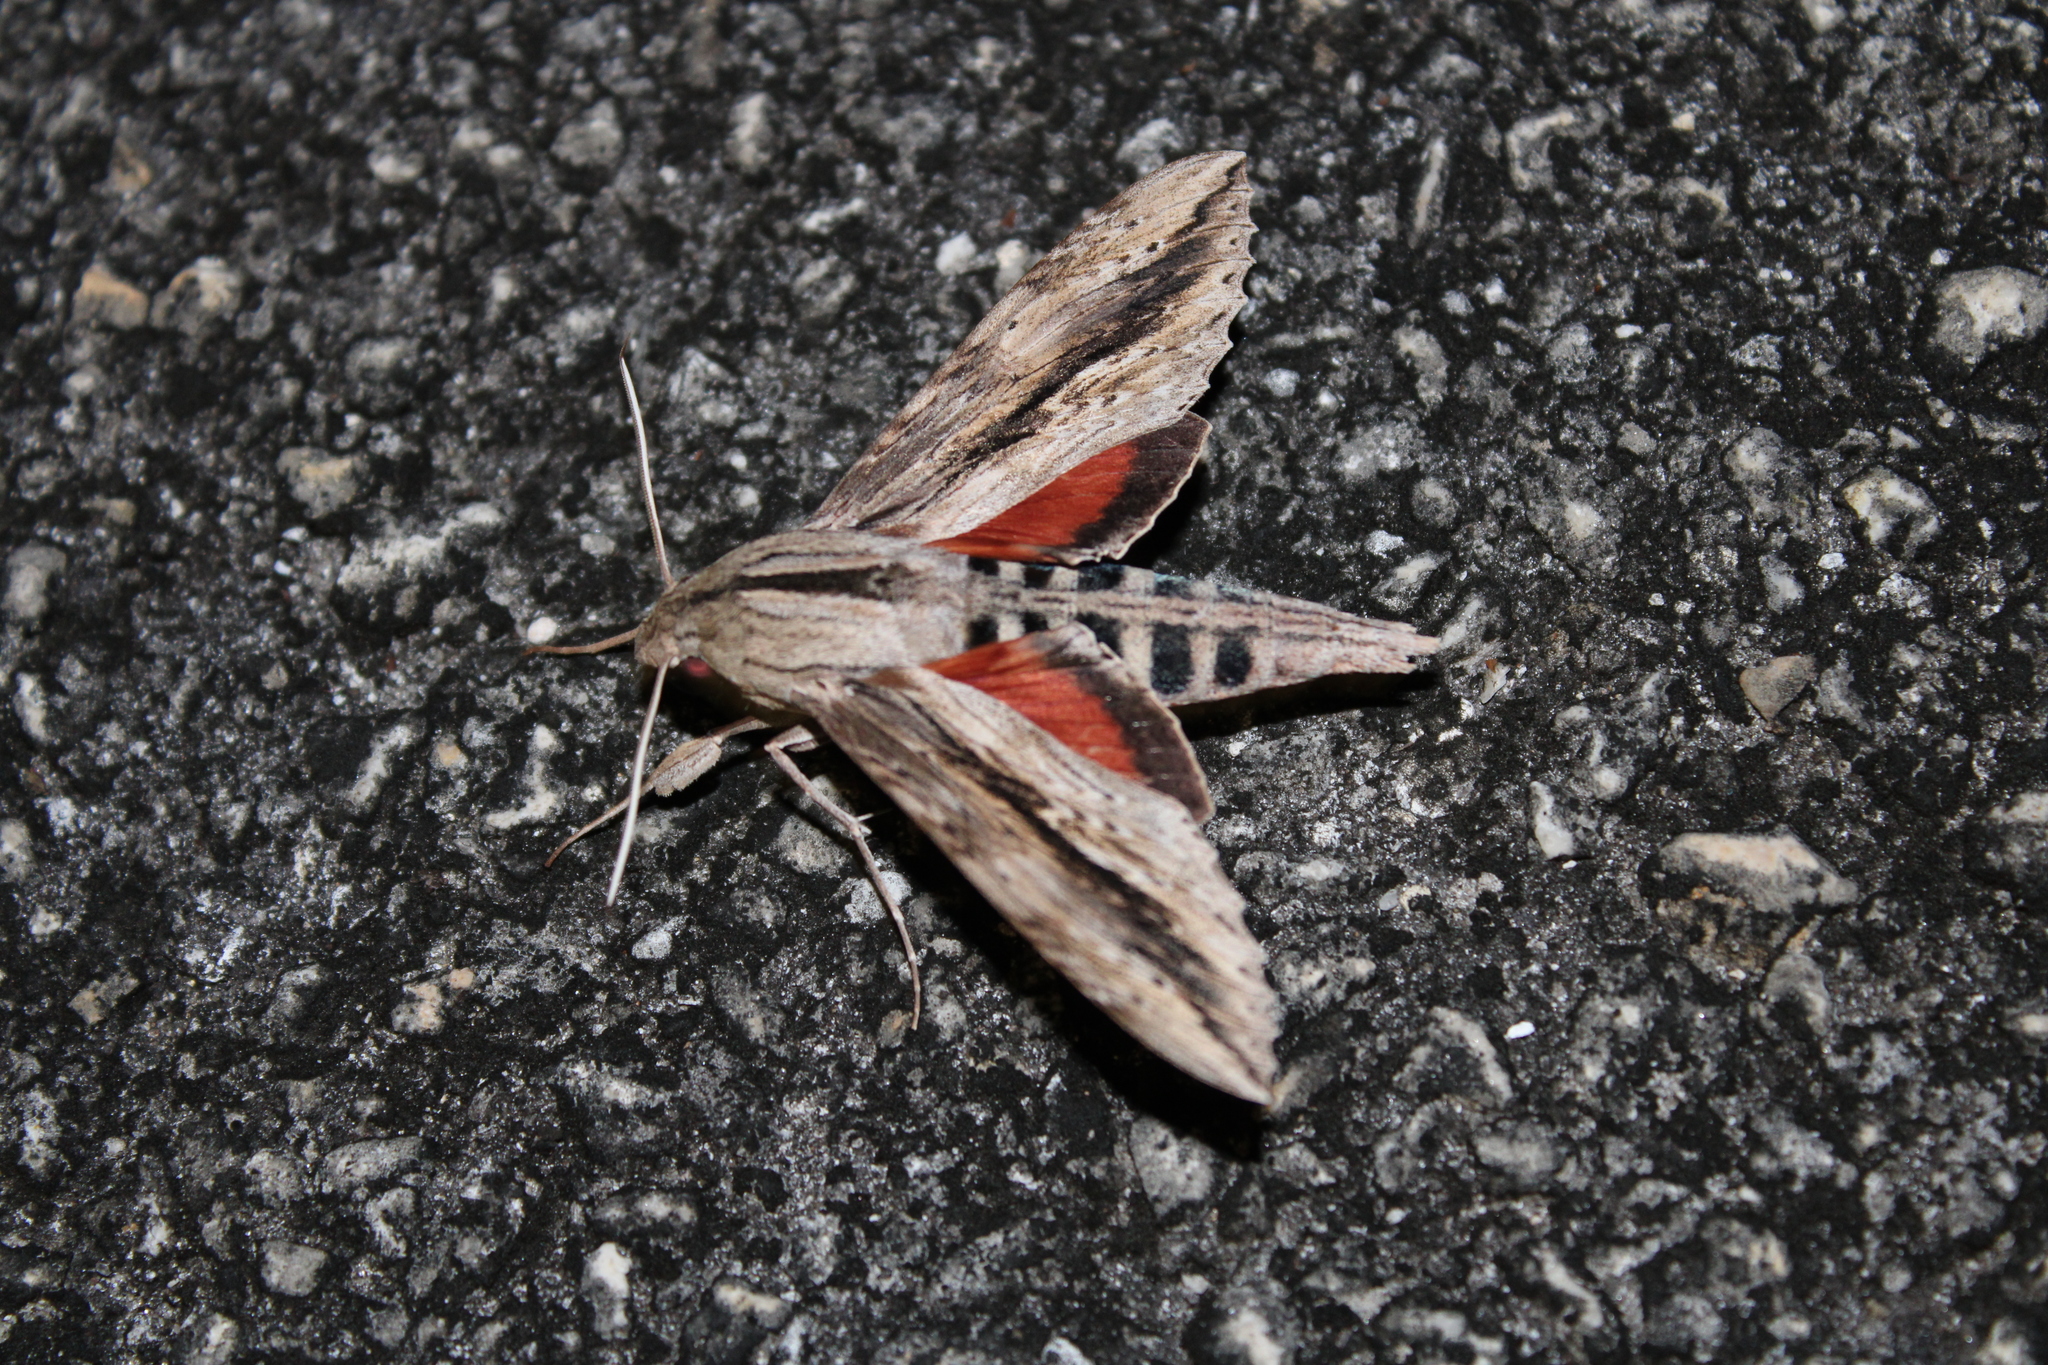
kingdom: Animalia
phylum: Arthropoda
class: Insecta
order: Lepidoptera
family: Sphingidae
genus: Erinnyis
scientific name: Erinnyis ello
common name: Ello sphinx
